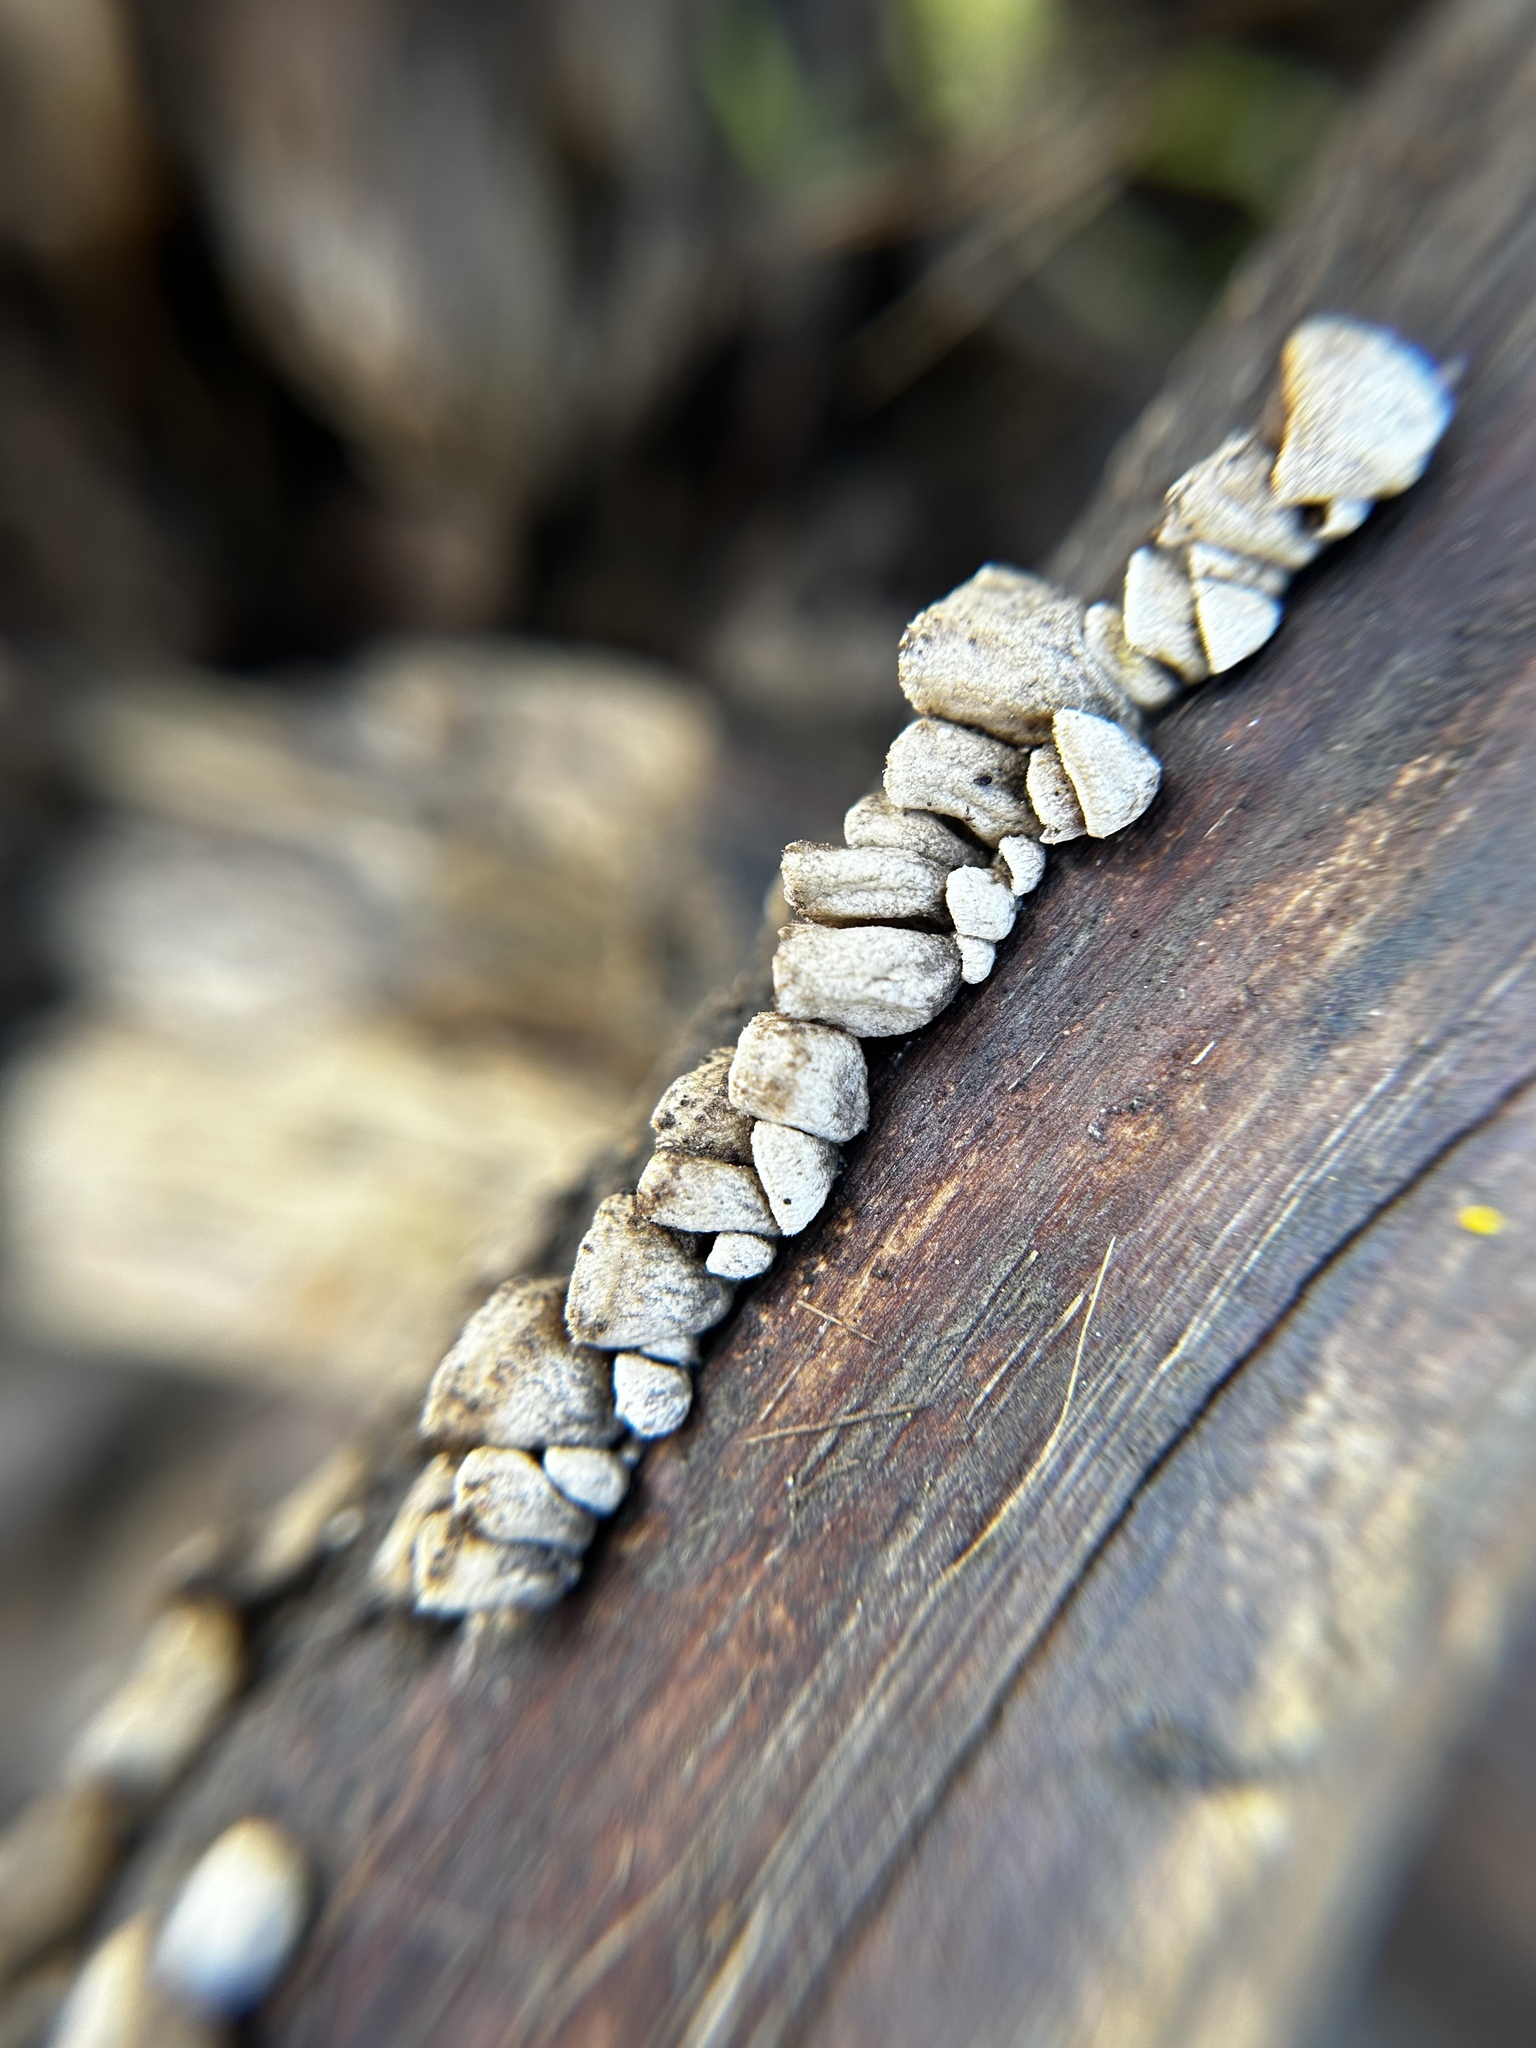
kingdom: Fungi
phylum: Basidiomycota
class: Agaricomycetes
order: Agaricales
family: Schizophyllaceae
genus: Schizophyllum
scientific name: Schizophyllum amplum
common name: Poplar bells
